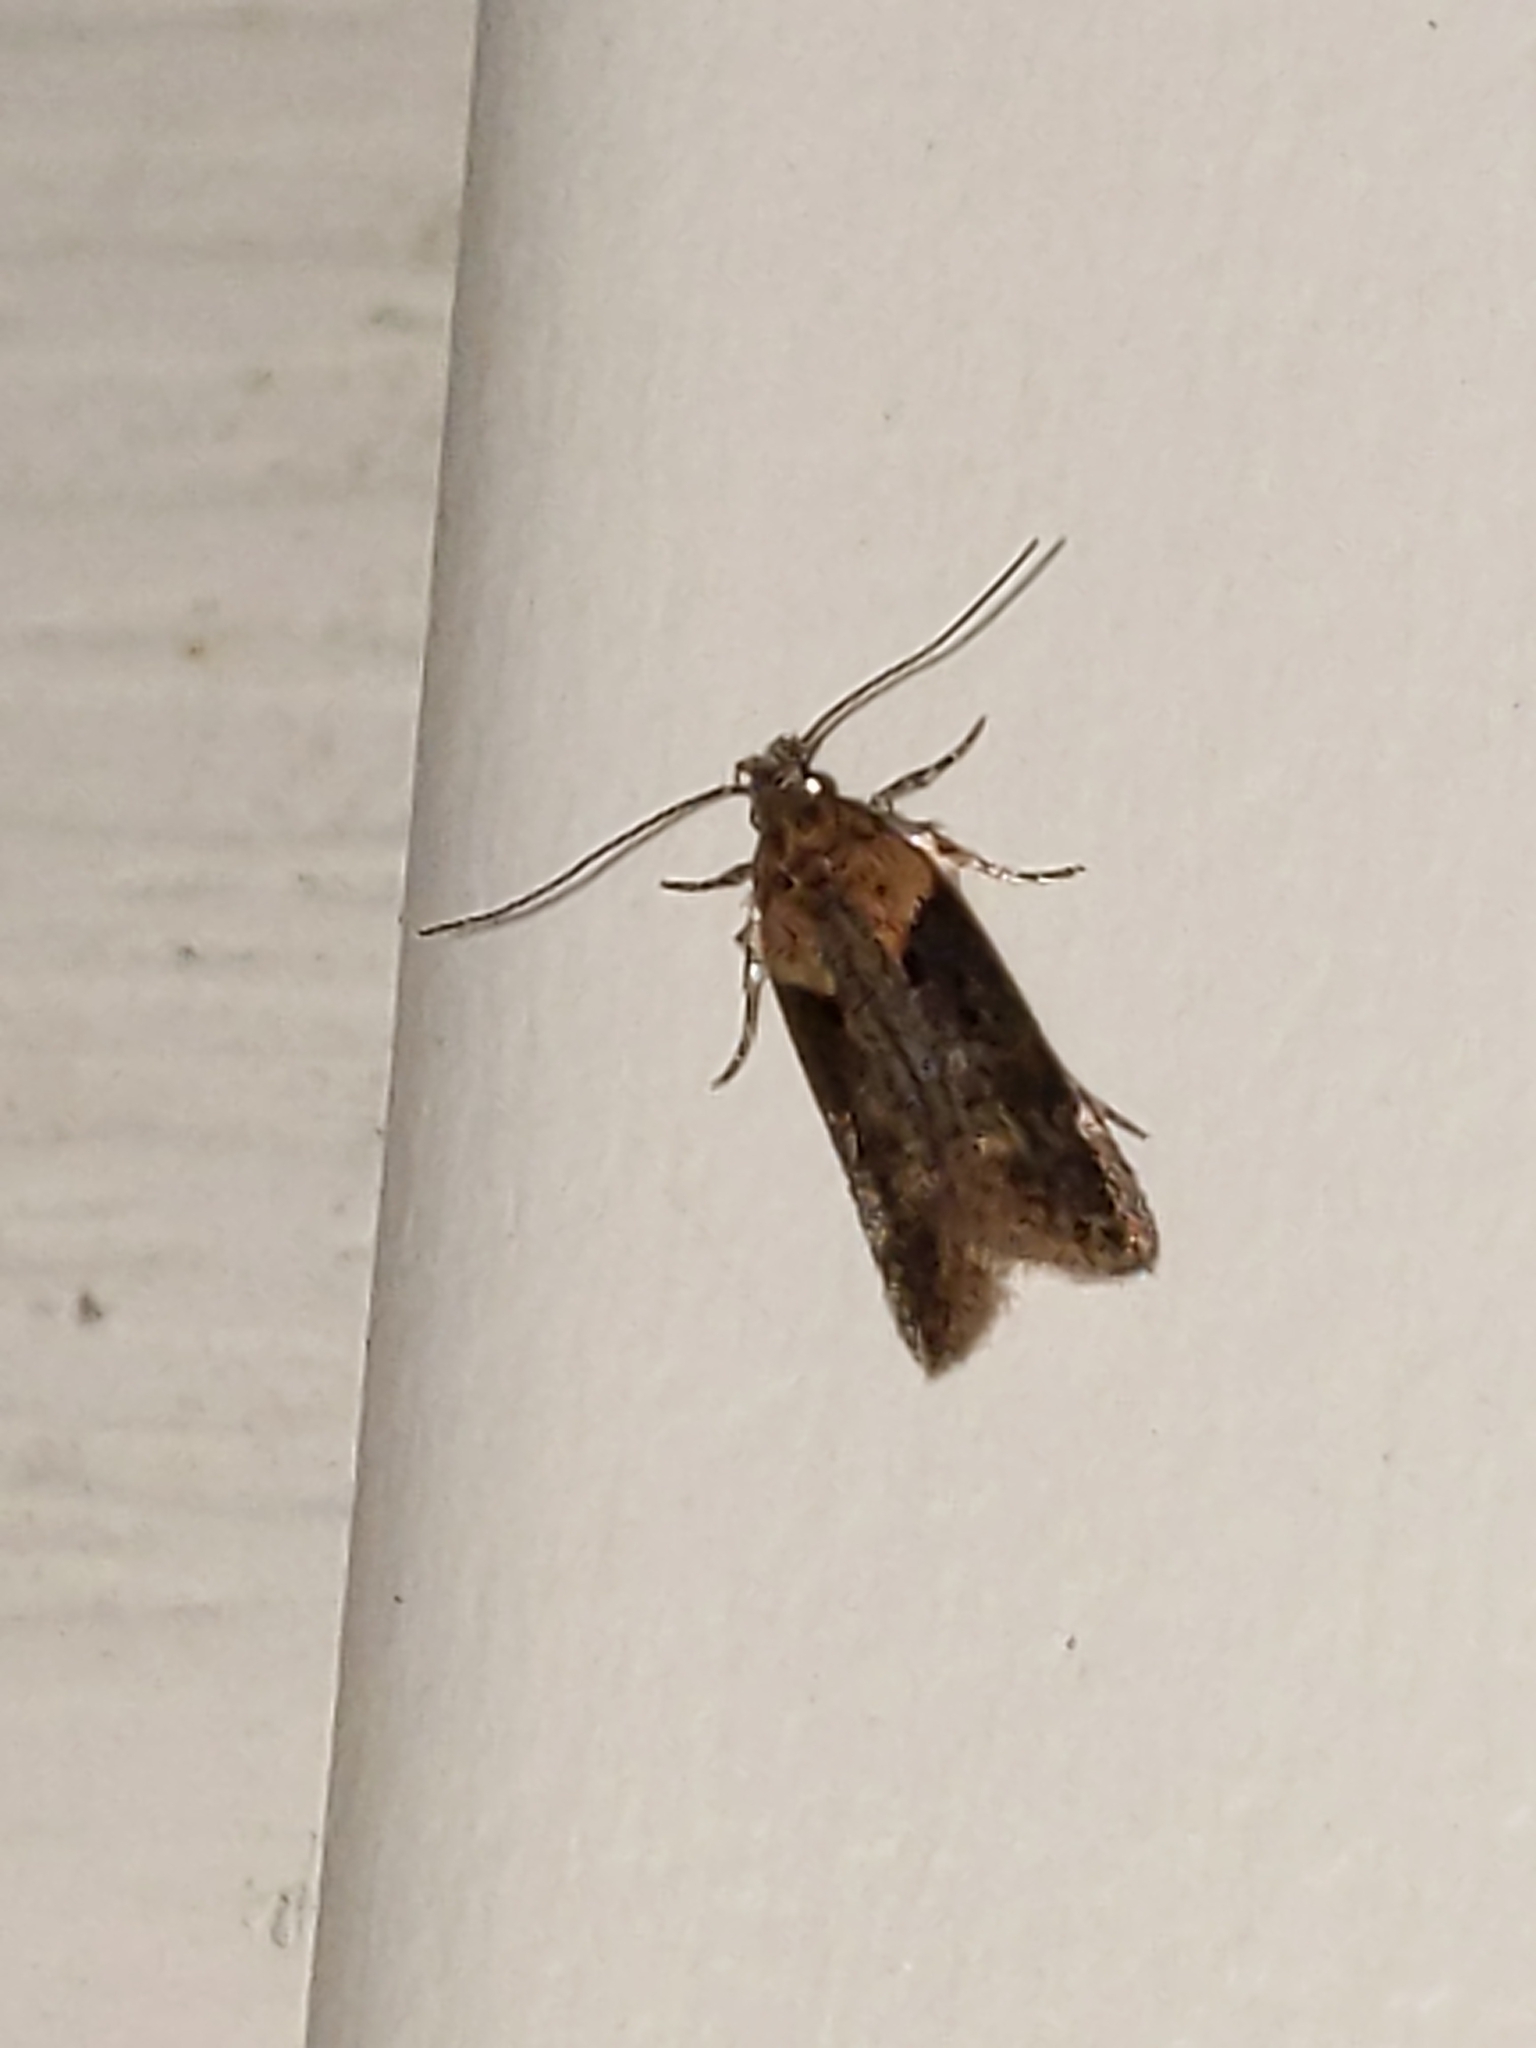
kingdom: Animalia
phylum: Arthropoda
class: Insecta
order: Lepidoptera
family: Gelechiidae
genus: Chionodes
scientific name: Chionodes mediofuscella
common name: Black-smudged chionodes moth
